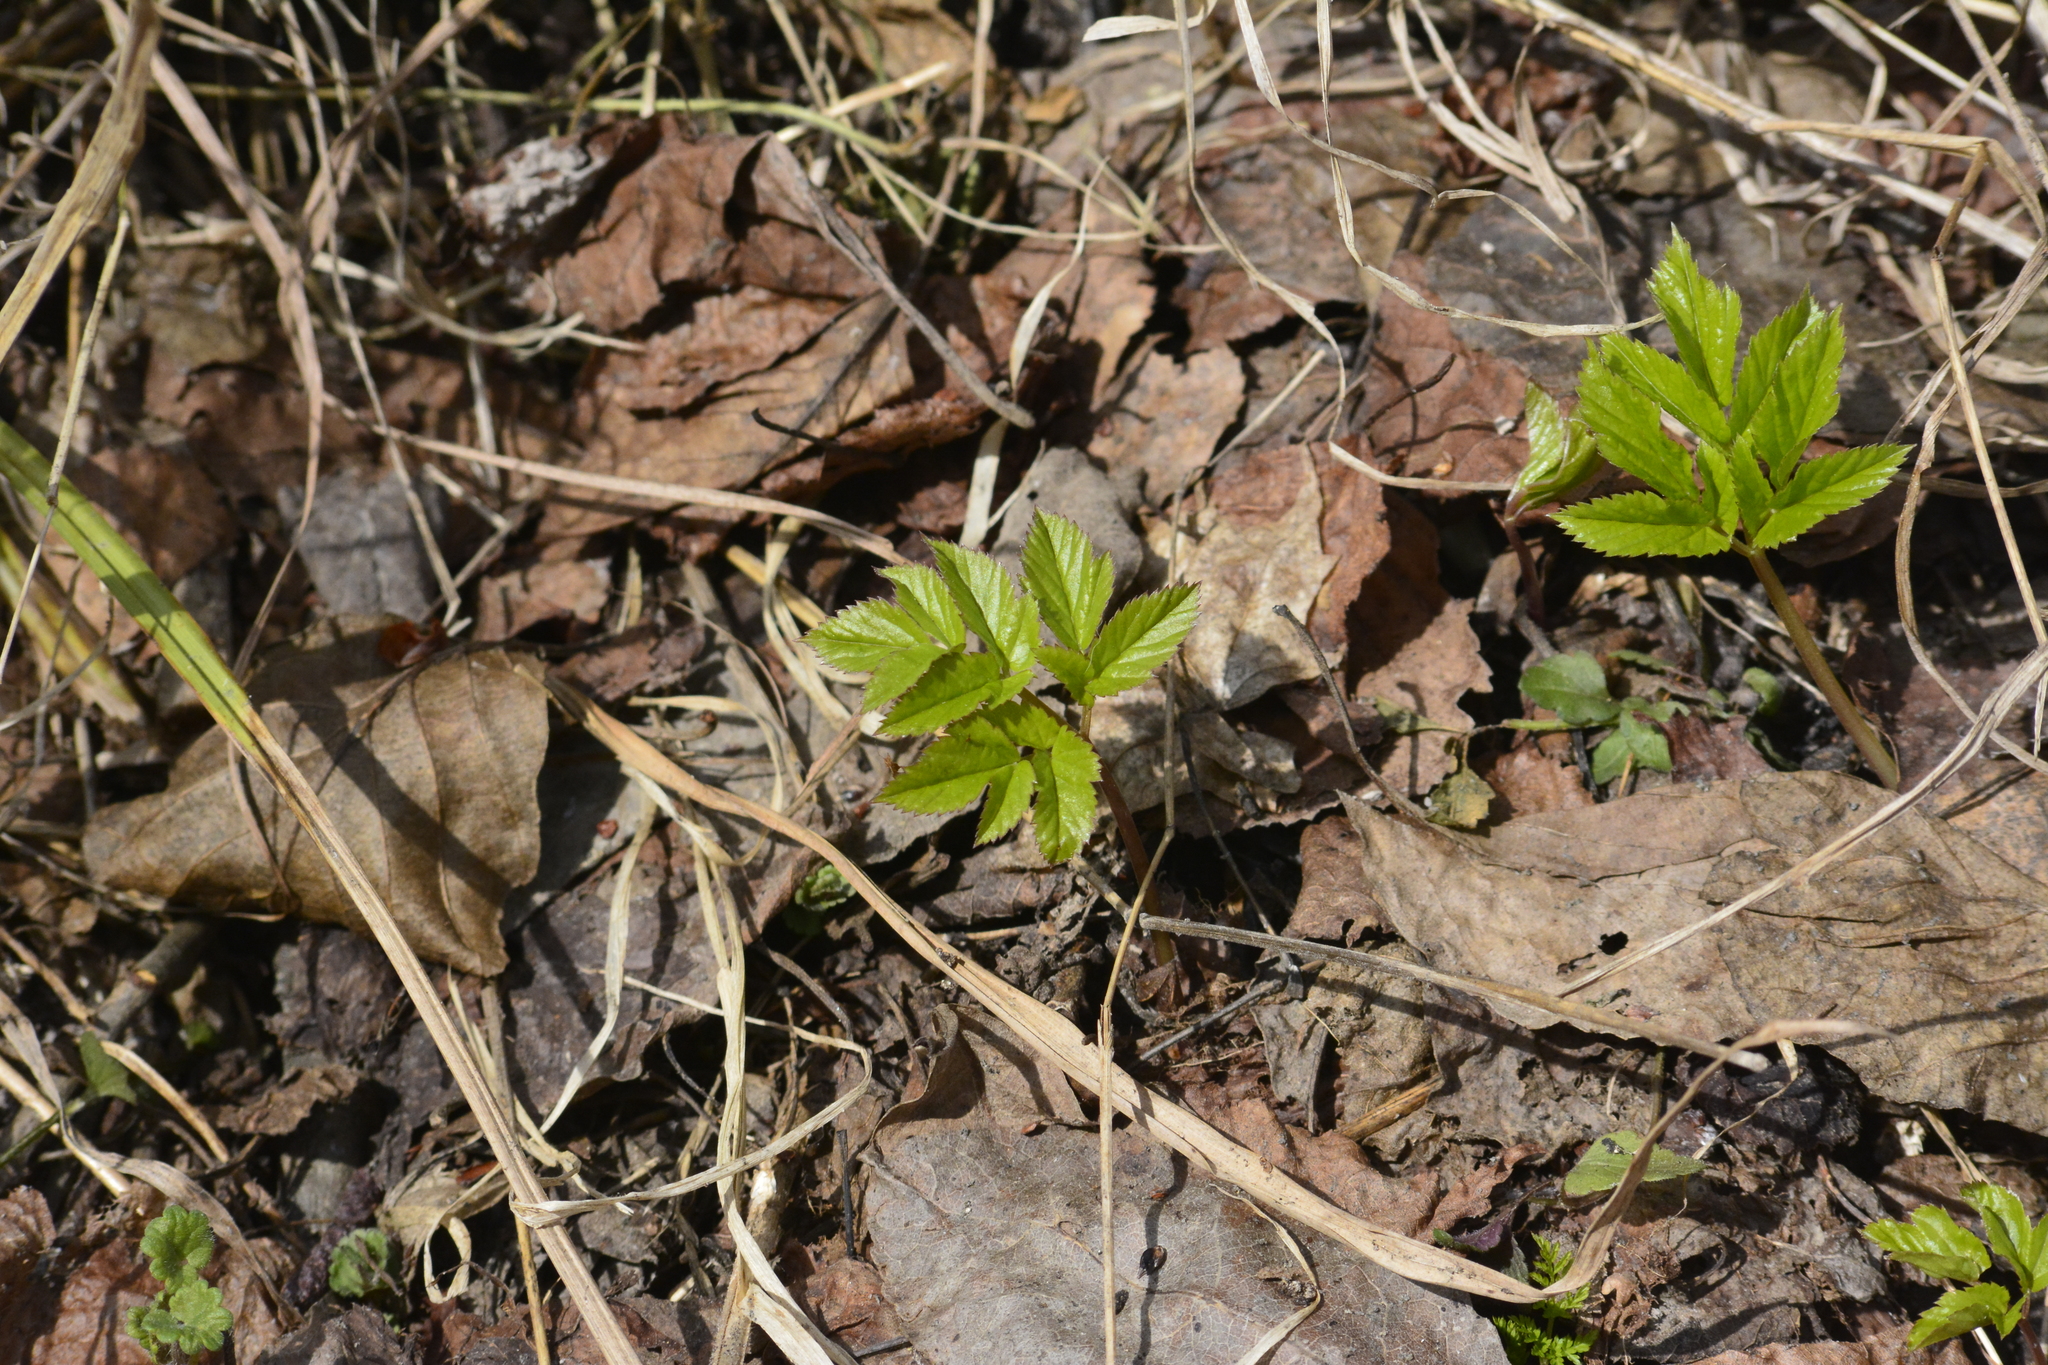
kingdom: Plantae
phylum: Tracheophyta
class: Magnoliopsida
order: Apiales
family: Apiaceae
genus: Aegopodium
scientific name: Aegopodium podagraria
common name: Ground-elder
